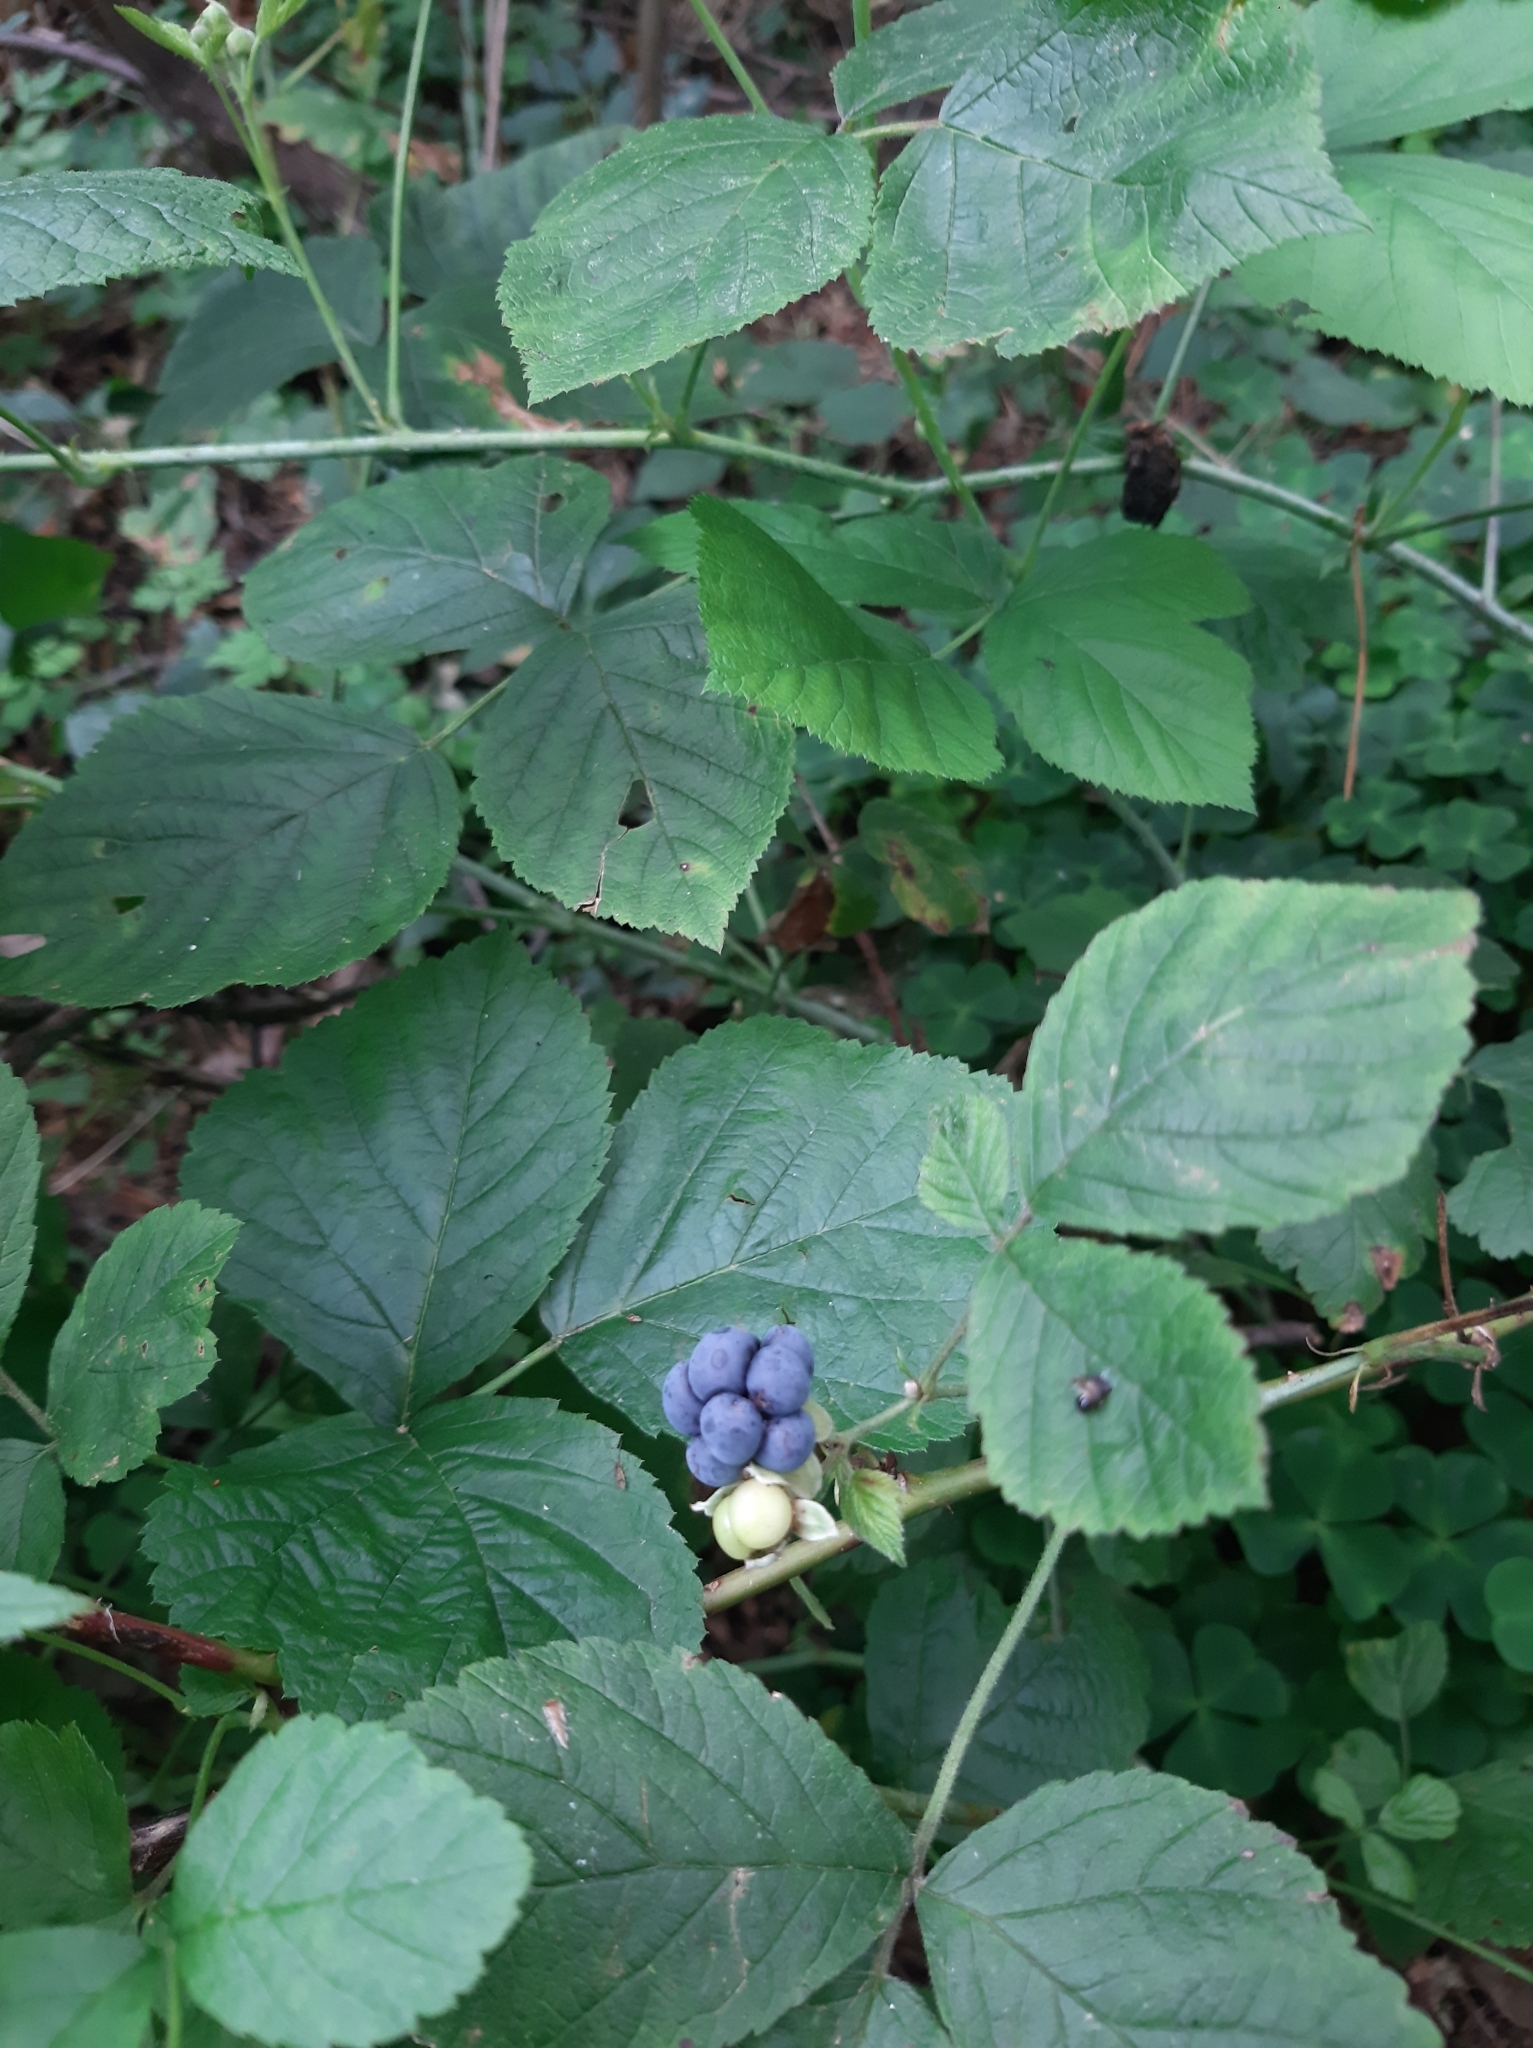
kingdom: Plantae
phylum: Tracheophyta
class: Magnoliopsida
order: Rosales
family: Rosaceae
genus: Rubus
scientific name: Rubus caesius
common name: Dewberry
